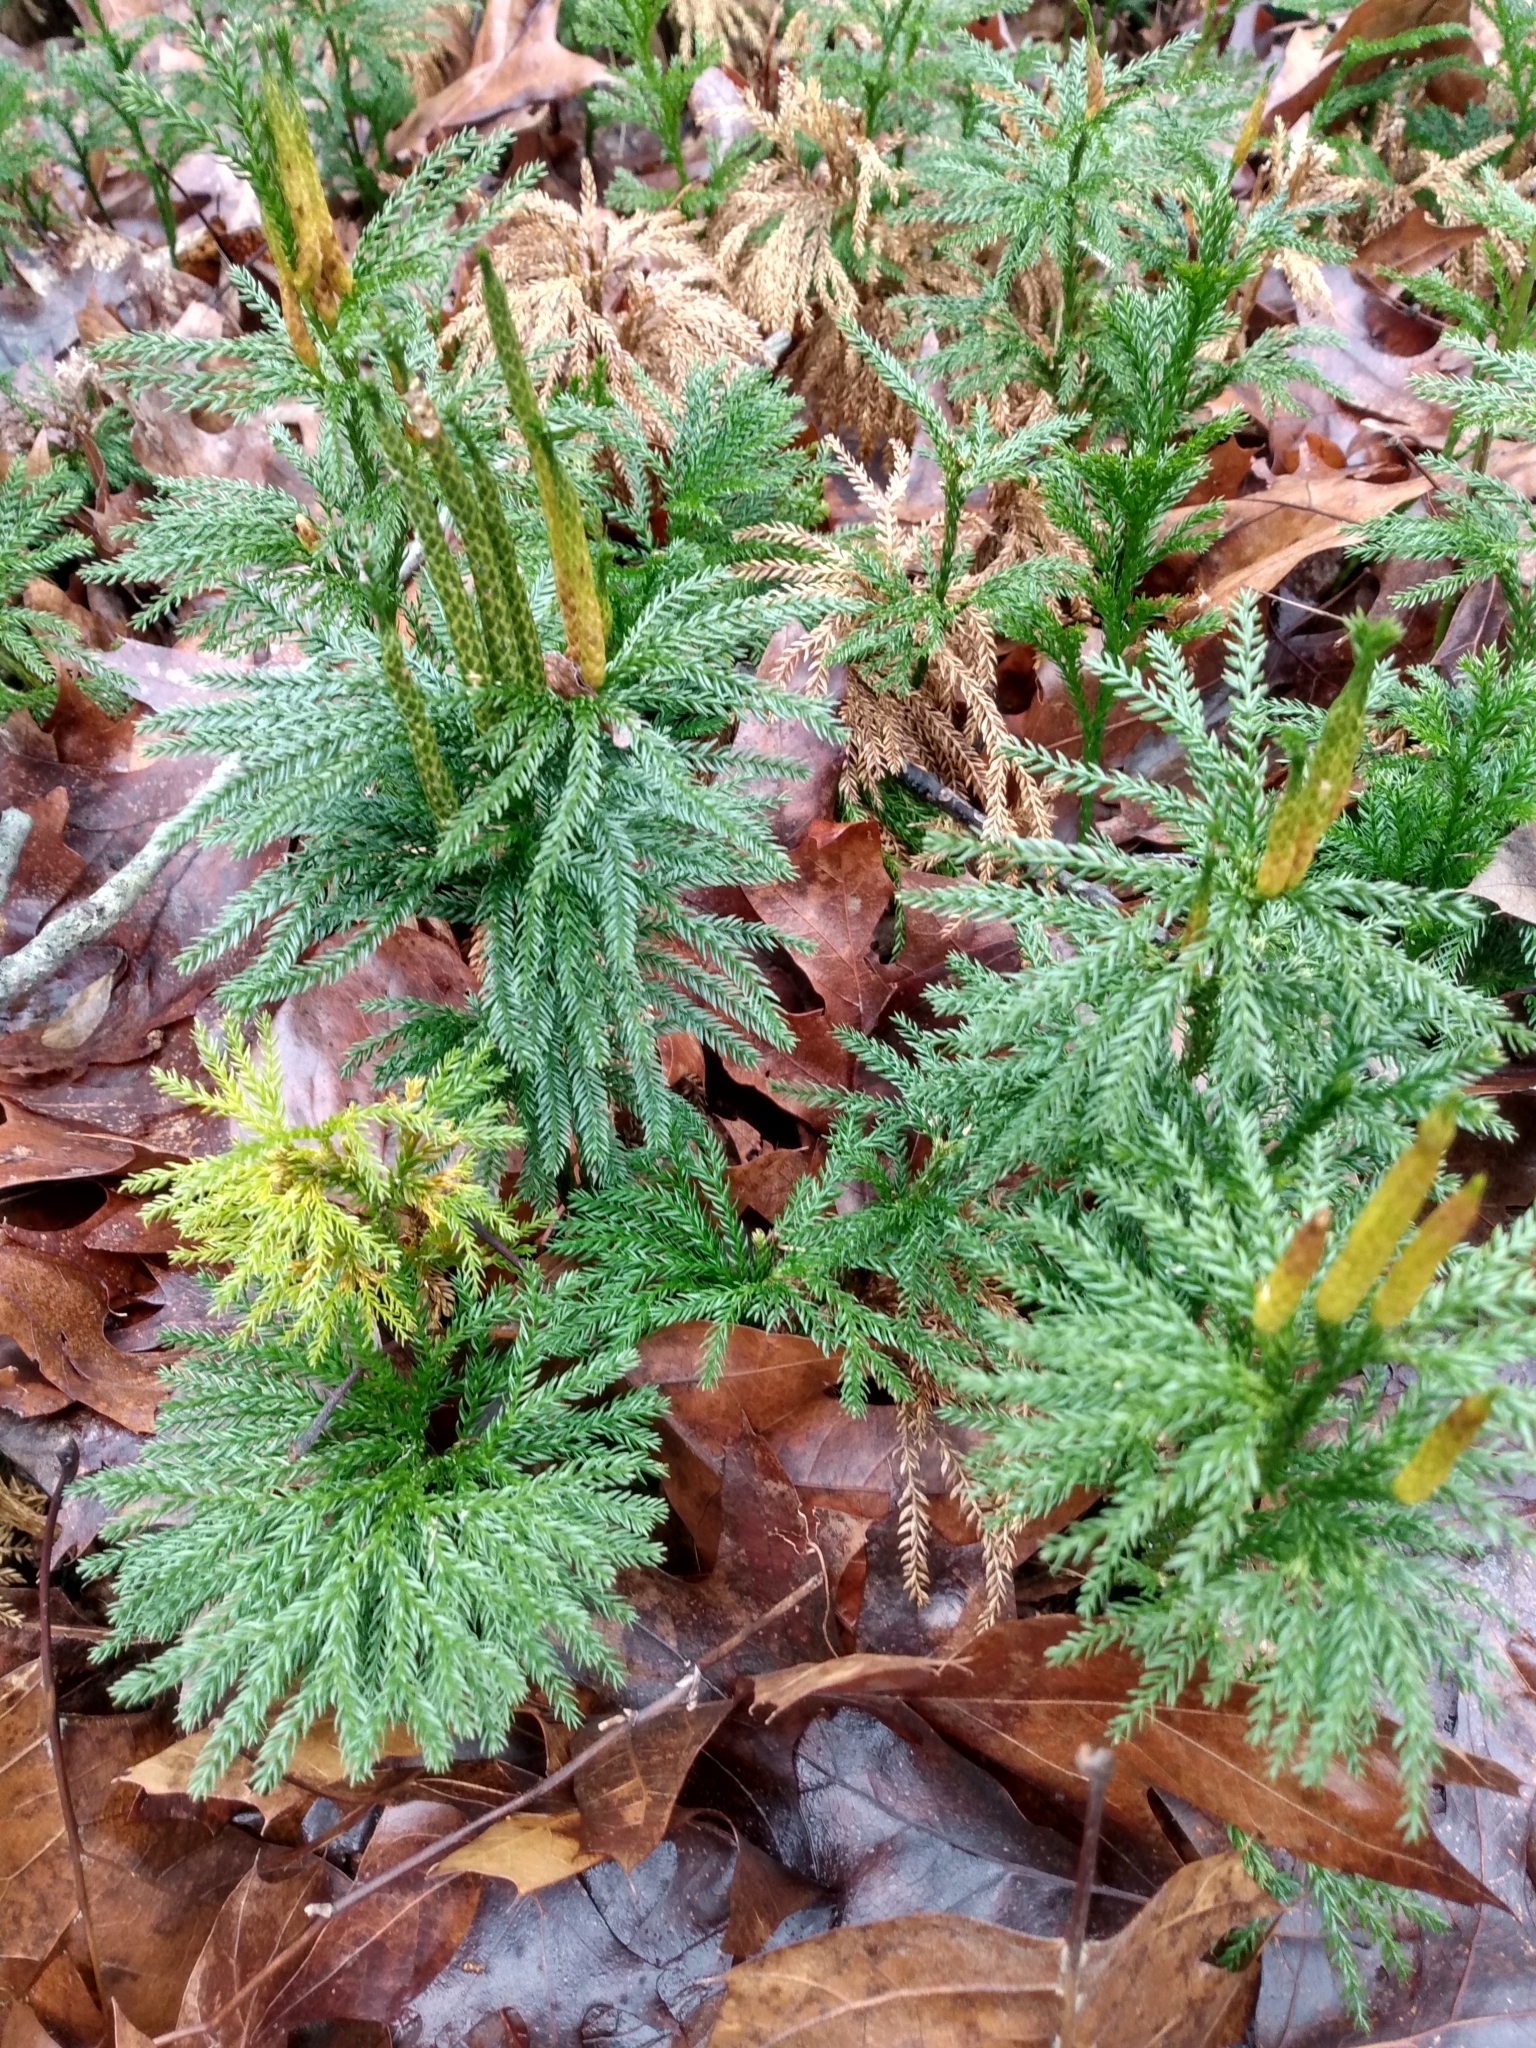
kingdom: Plantae
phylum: Tracheophyta
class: Lycopodiopsida
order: Lycopodiales
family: Lycopodiaceae
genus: Dendrolycopodium
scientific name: Dendrolycopodium obscurum
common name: Common ground-pine
